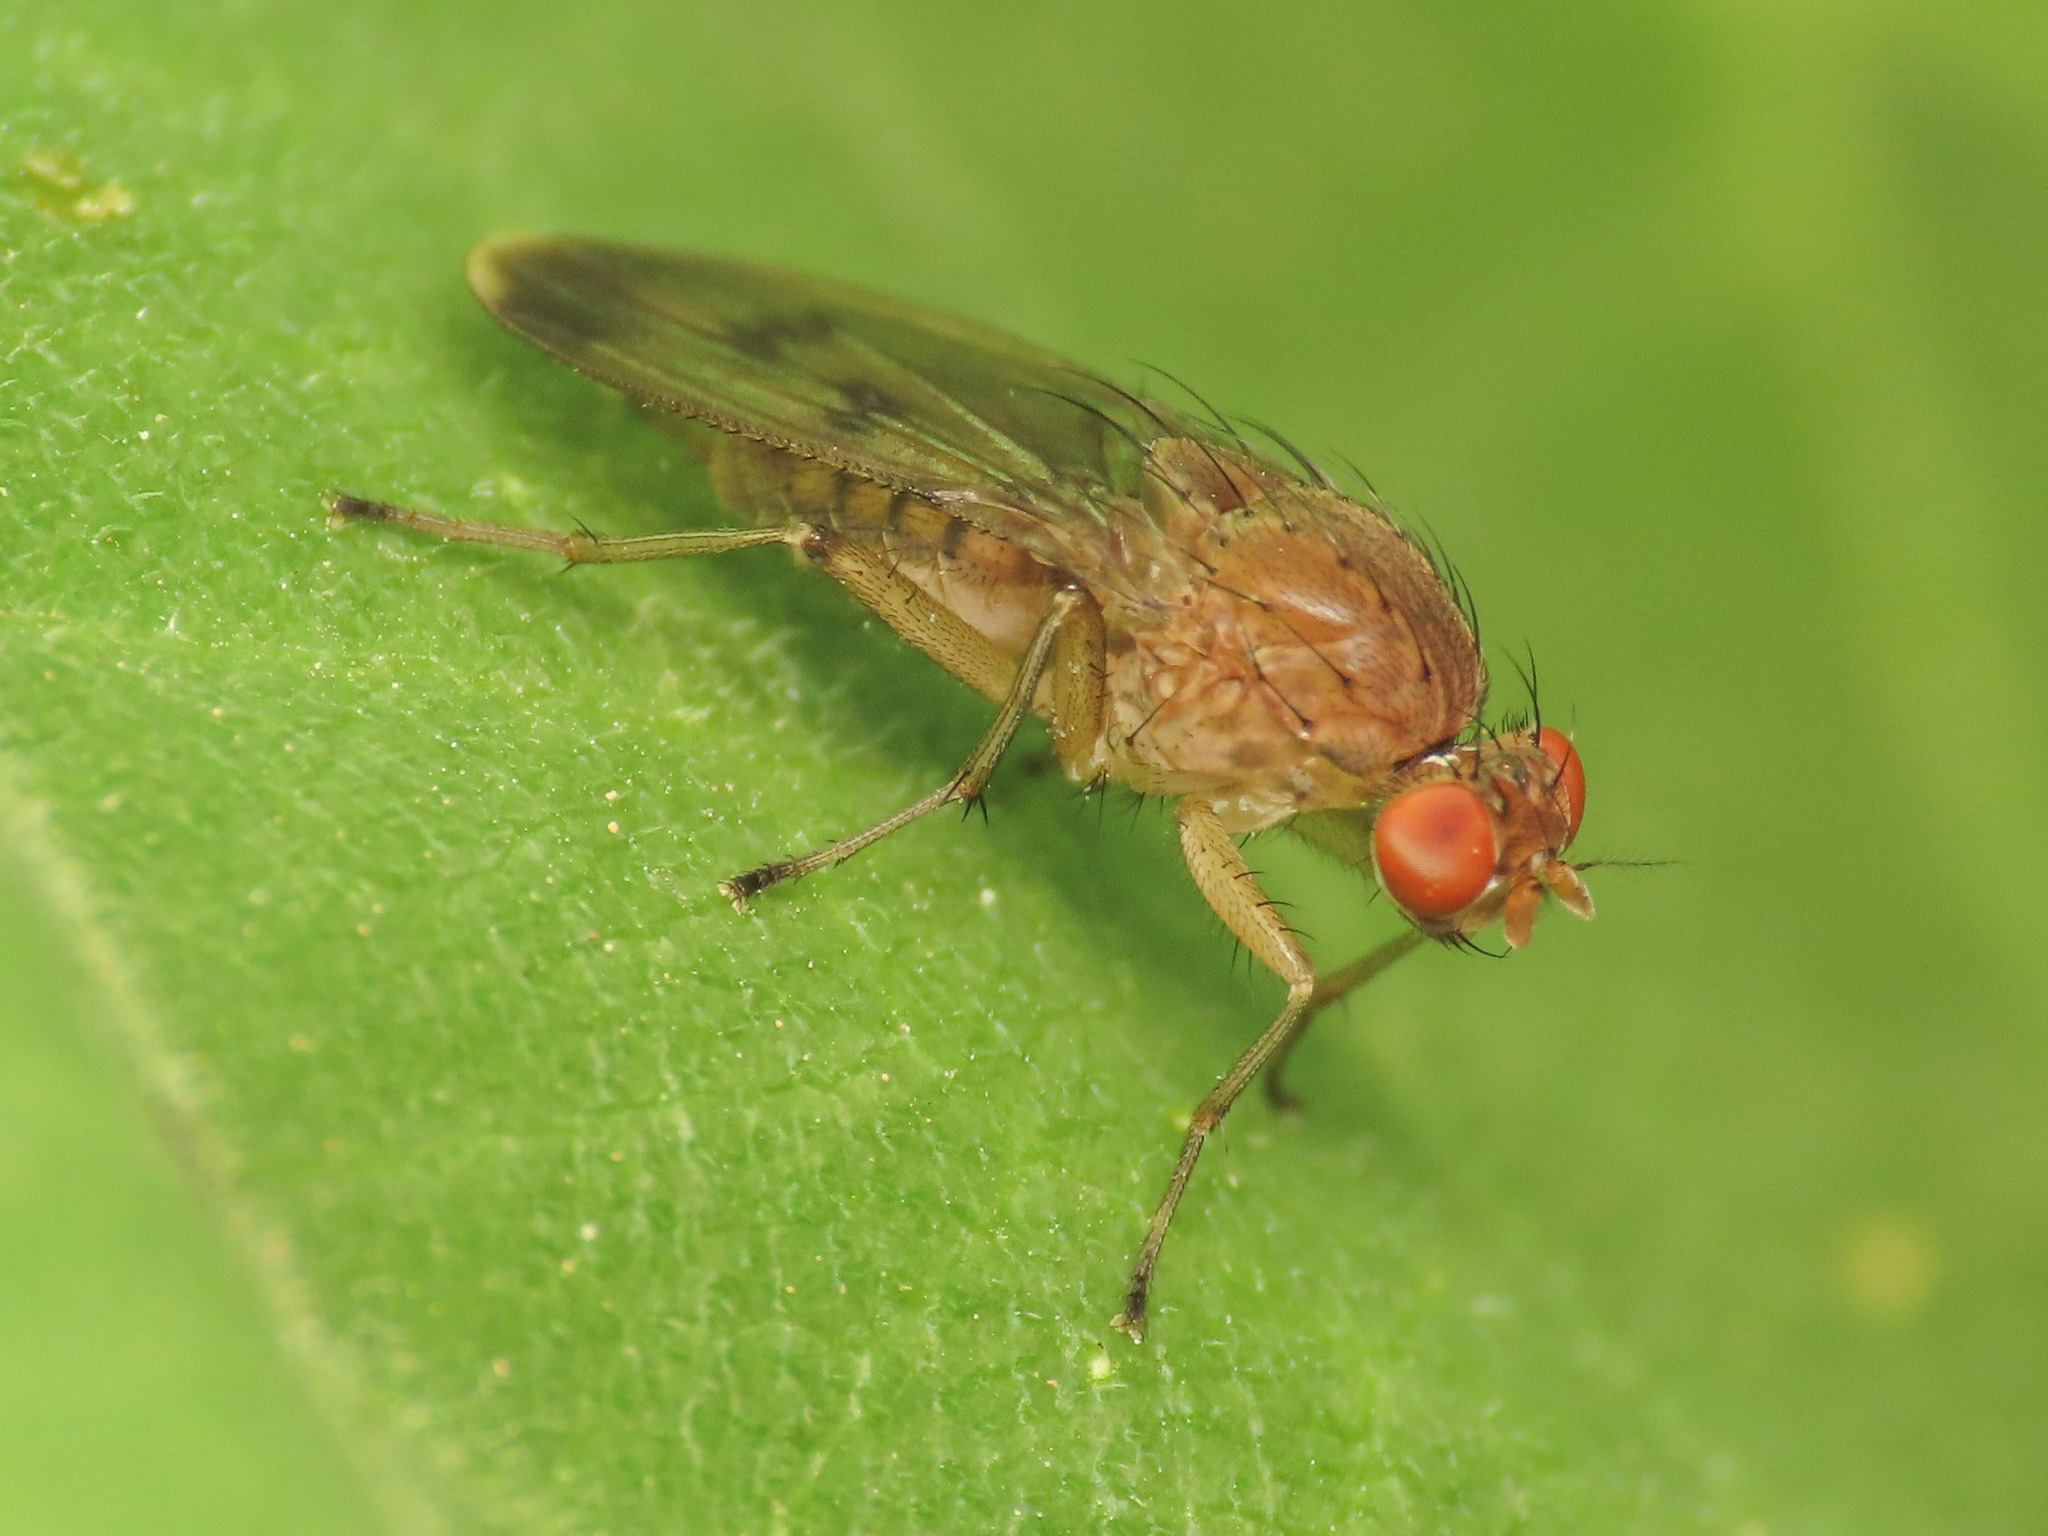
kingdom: Animalia
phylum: Arthropoda
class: Insecta
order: Diptera
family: Heleomyzidae
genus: Suillia
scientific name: Suillia variegata
